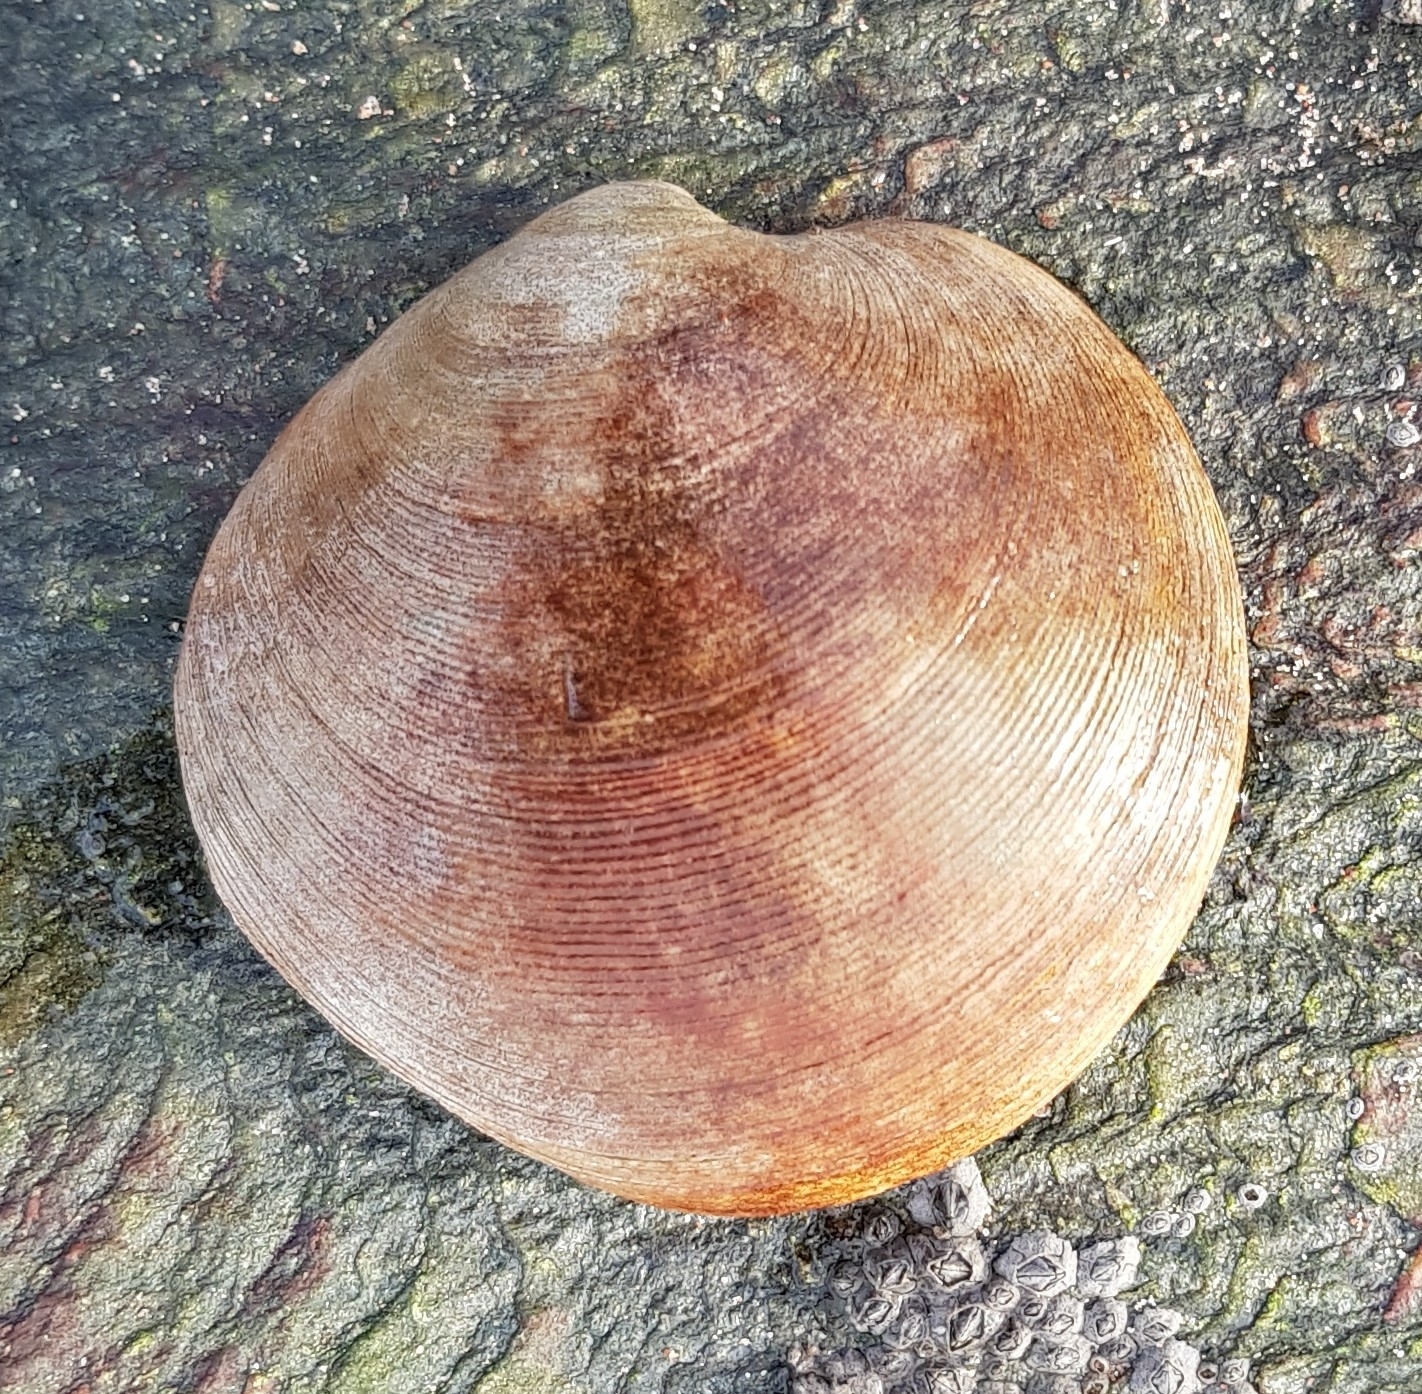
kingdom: Animalia
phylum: Mollusca
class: Bivalvia
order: Venerida
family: Veneridae
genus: Dosinia
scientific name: Dosinia exoleta
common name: Rayed artemis
